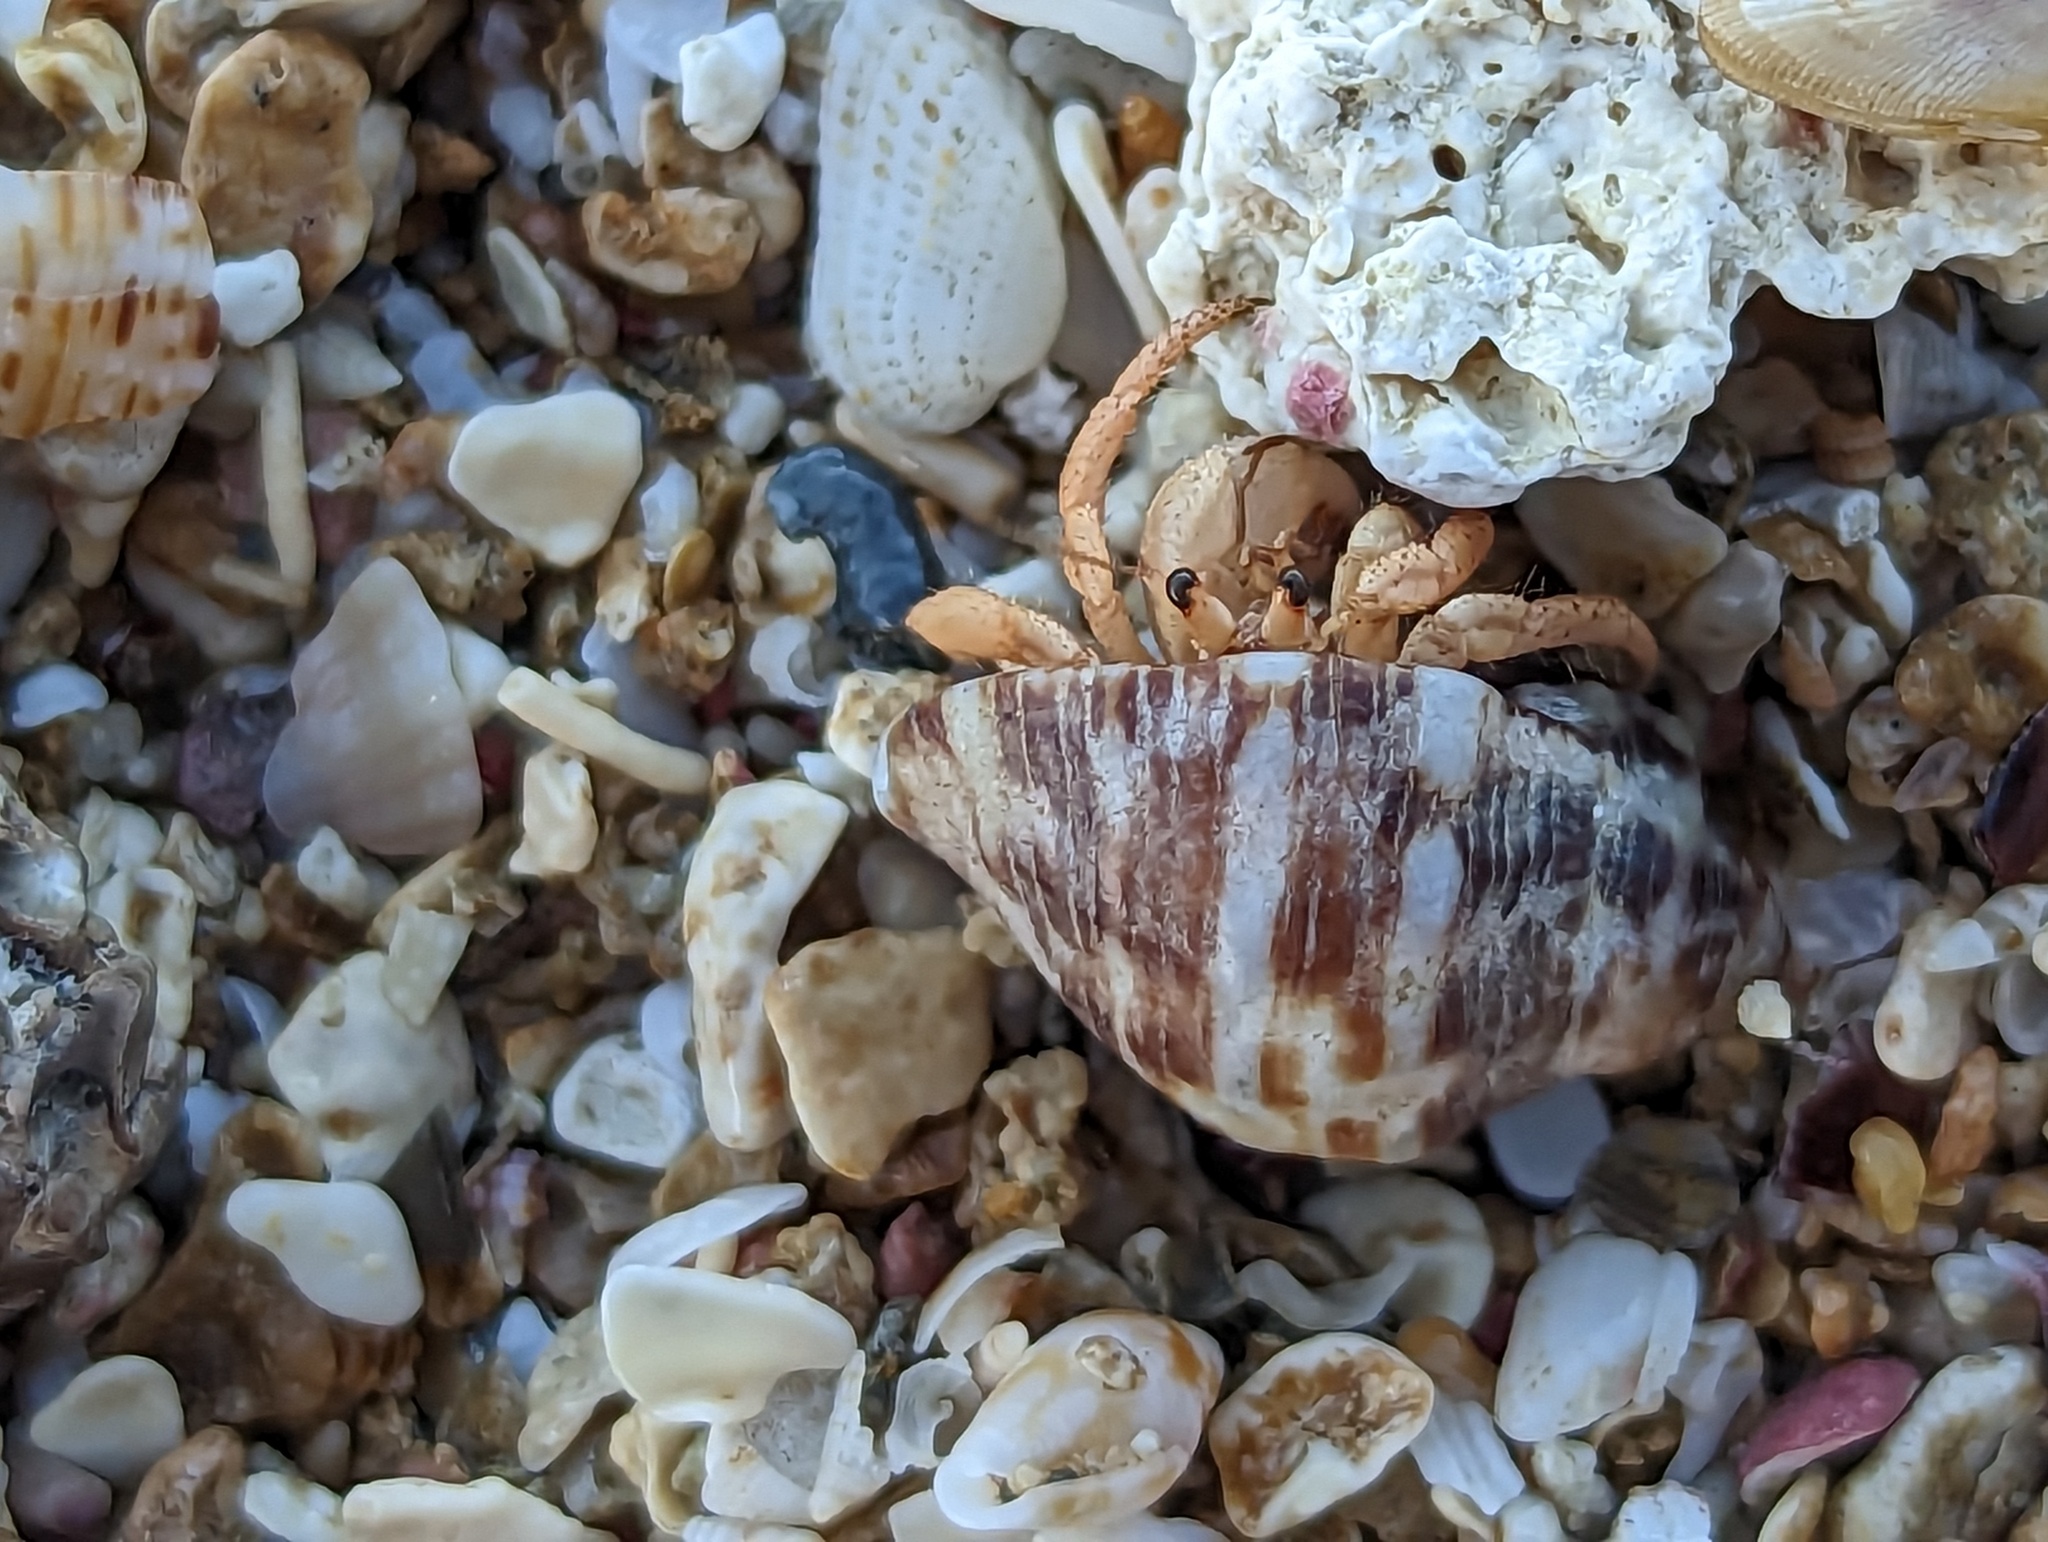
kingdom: Animalia
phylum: Arthropoda
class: Malacostraca
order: Decapoda
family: Coenobitidae
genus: Coenobita
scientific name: Coenobita clypeatus
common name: Caribbean hermit crab
